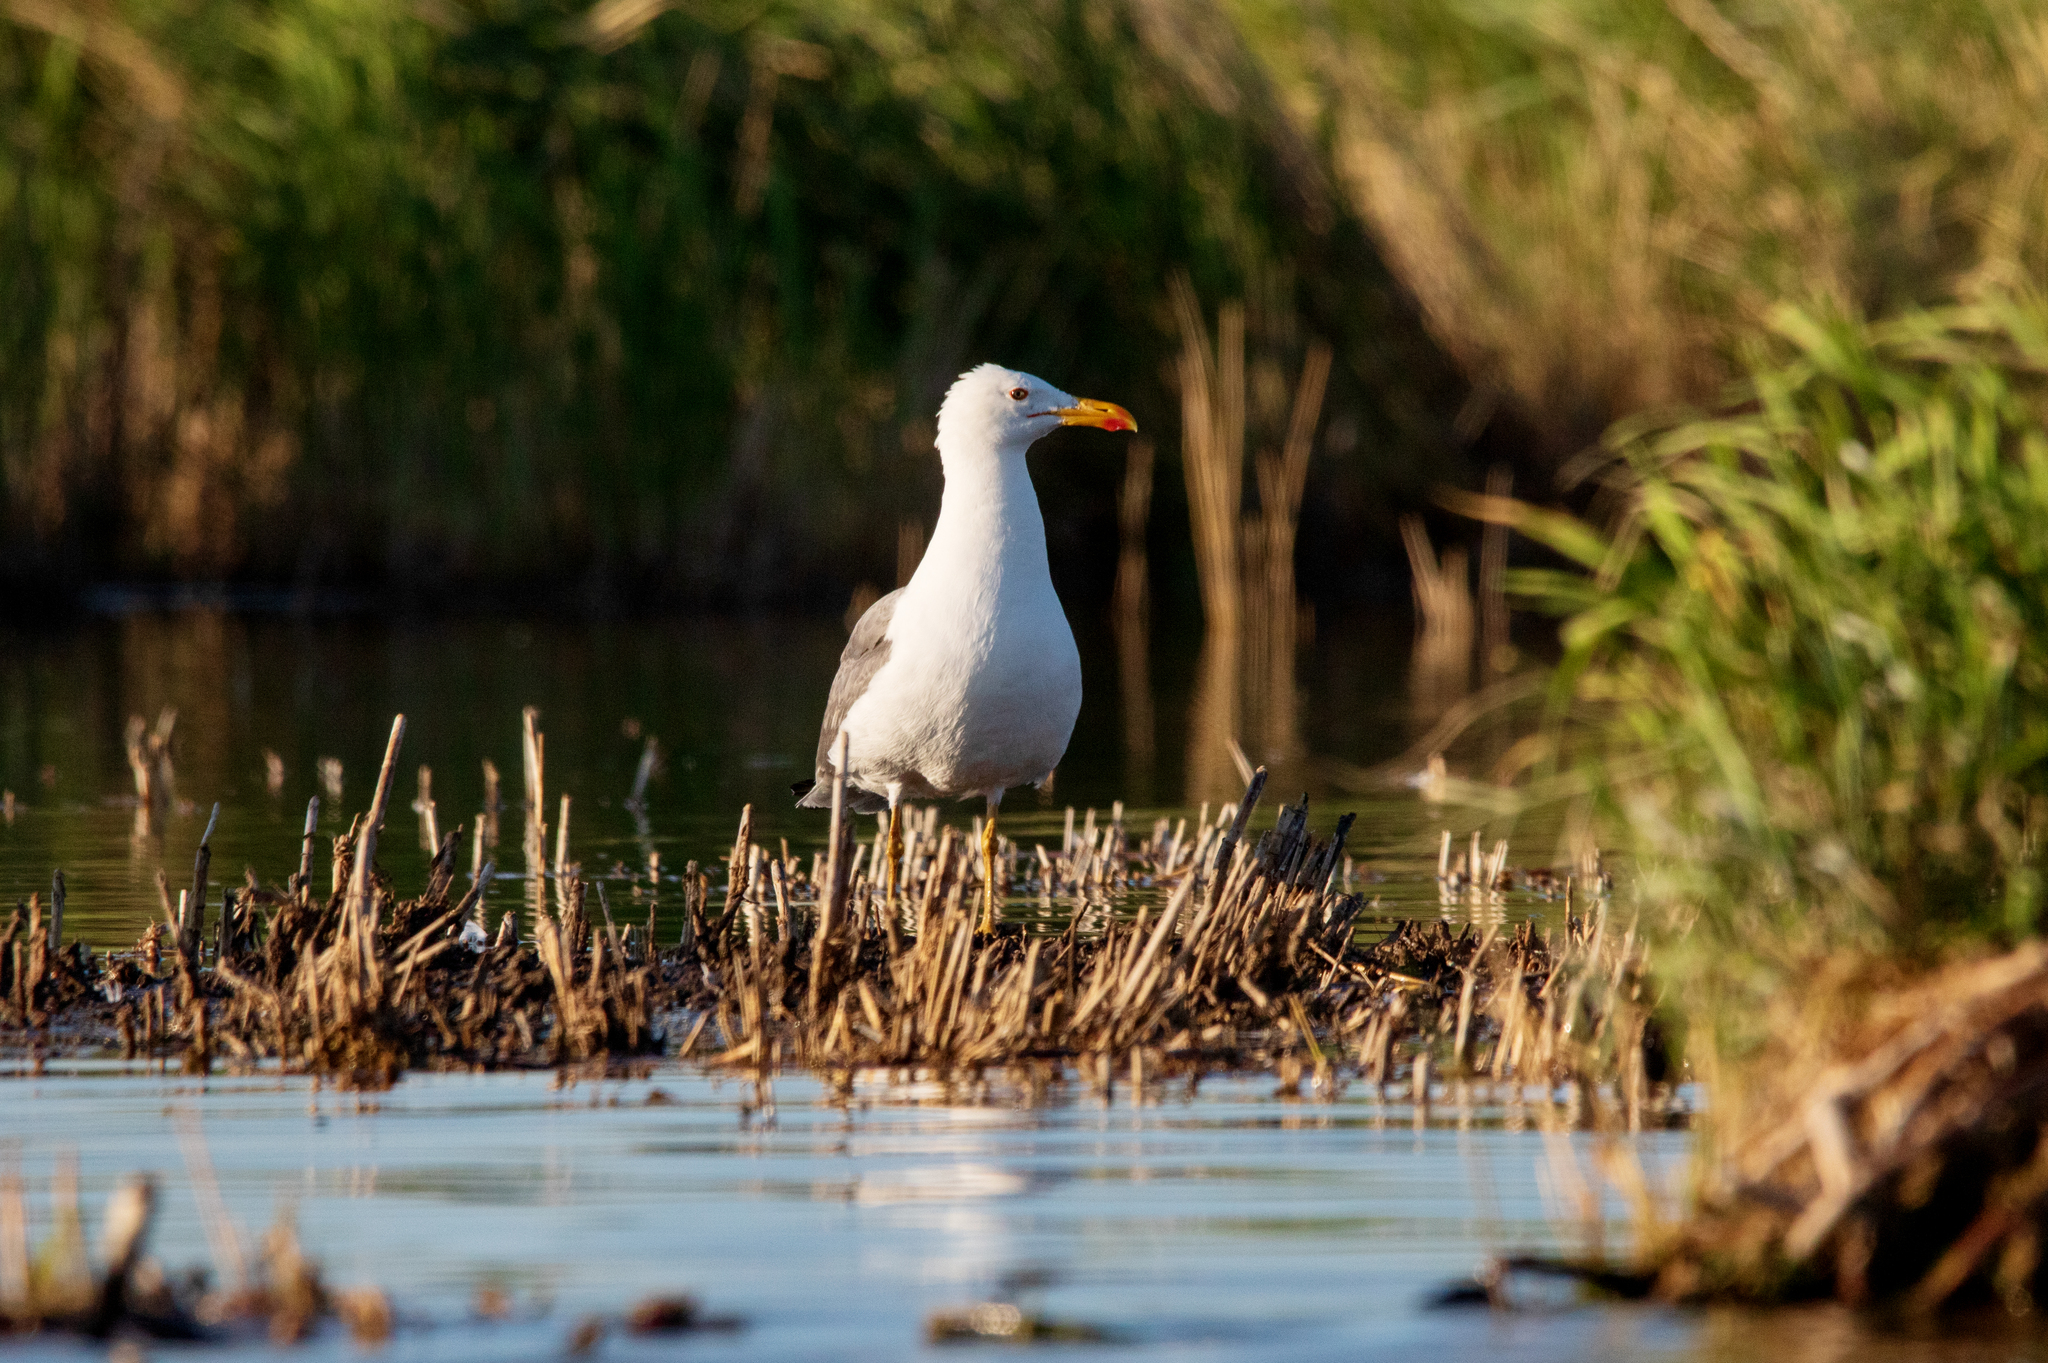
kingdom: Animalia
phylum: Chordata
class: Aves
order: Charadriiformes
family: Laridae
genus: Larus
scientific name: Larus fuscus
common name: Lesser black-backed gull
